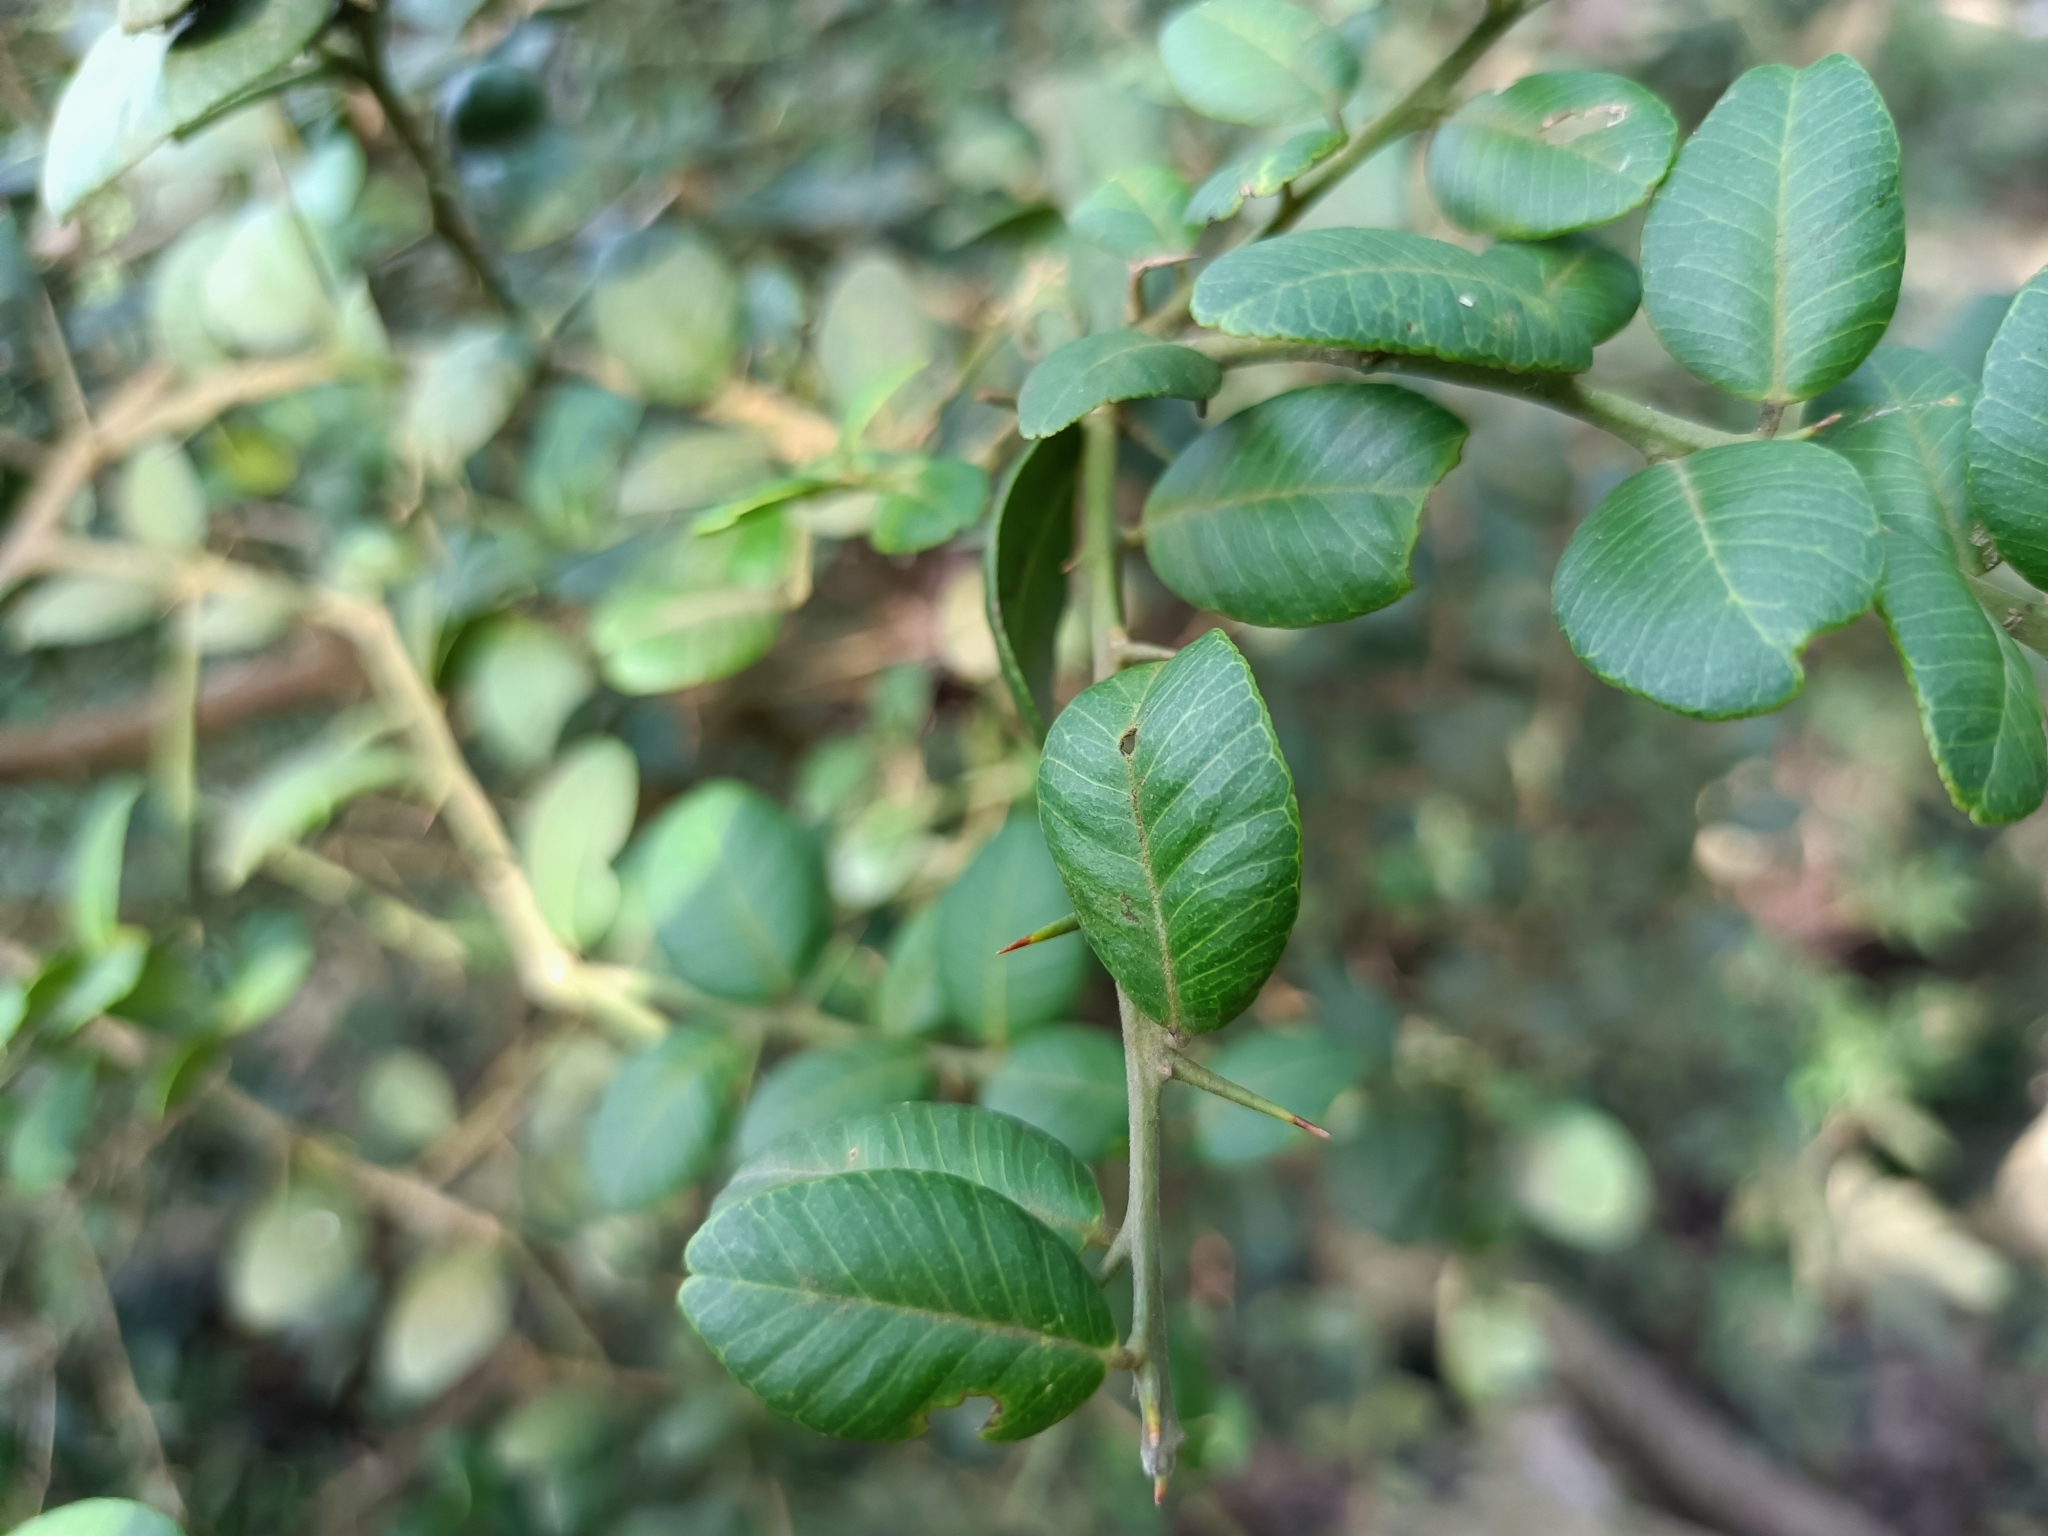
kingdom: Plantae
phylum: Tracheophyta
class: Magnoliopsida
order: Sapindales
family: Rutaceae
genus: Atalantia
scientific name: Atalantia buxifolia
